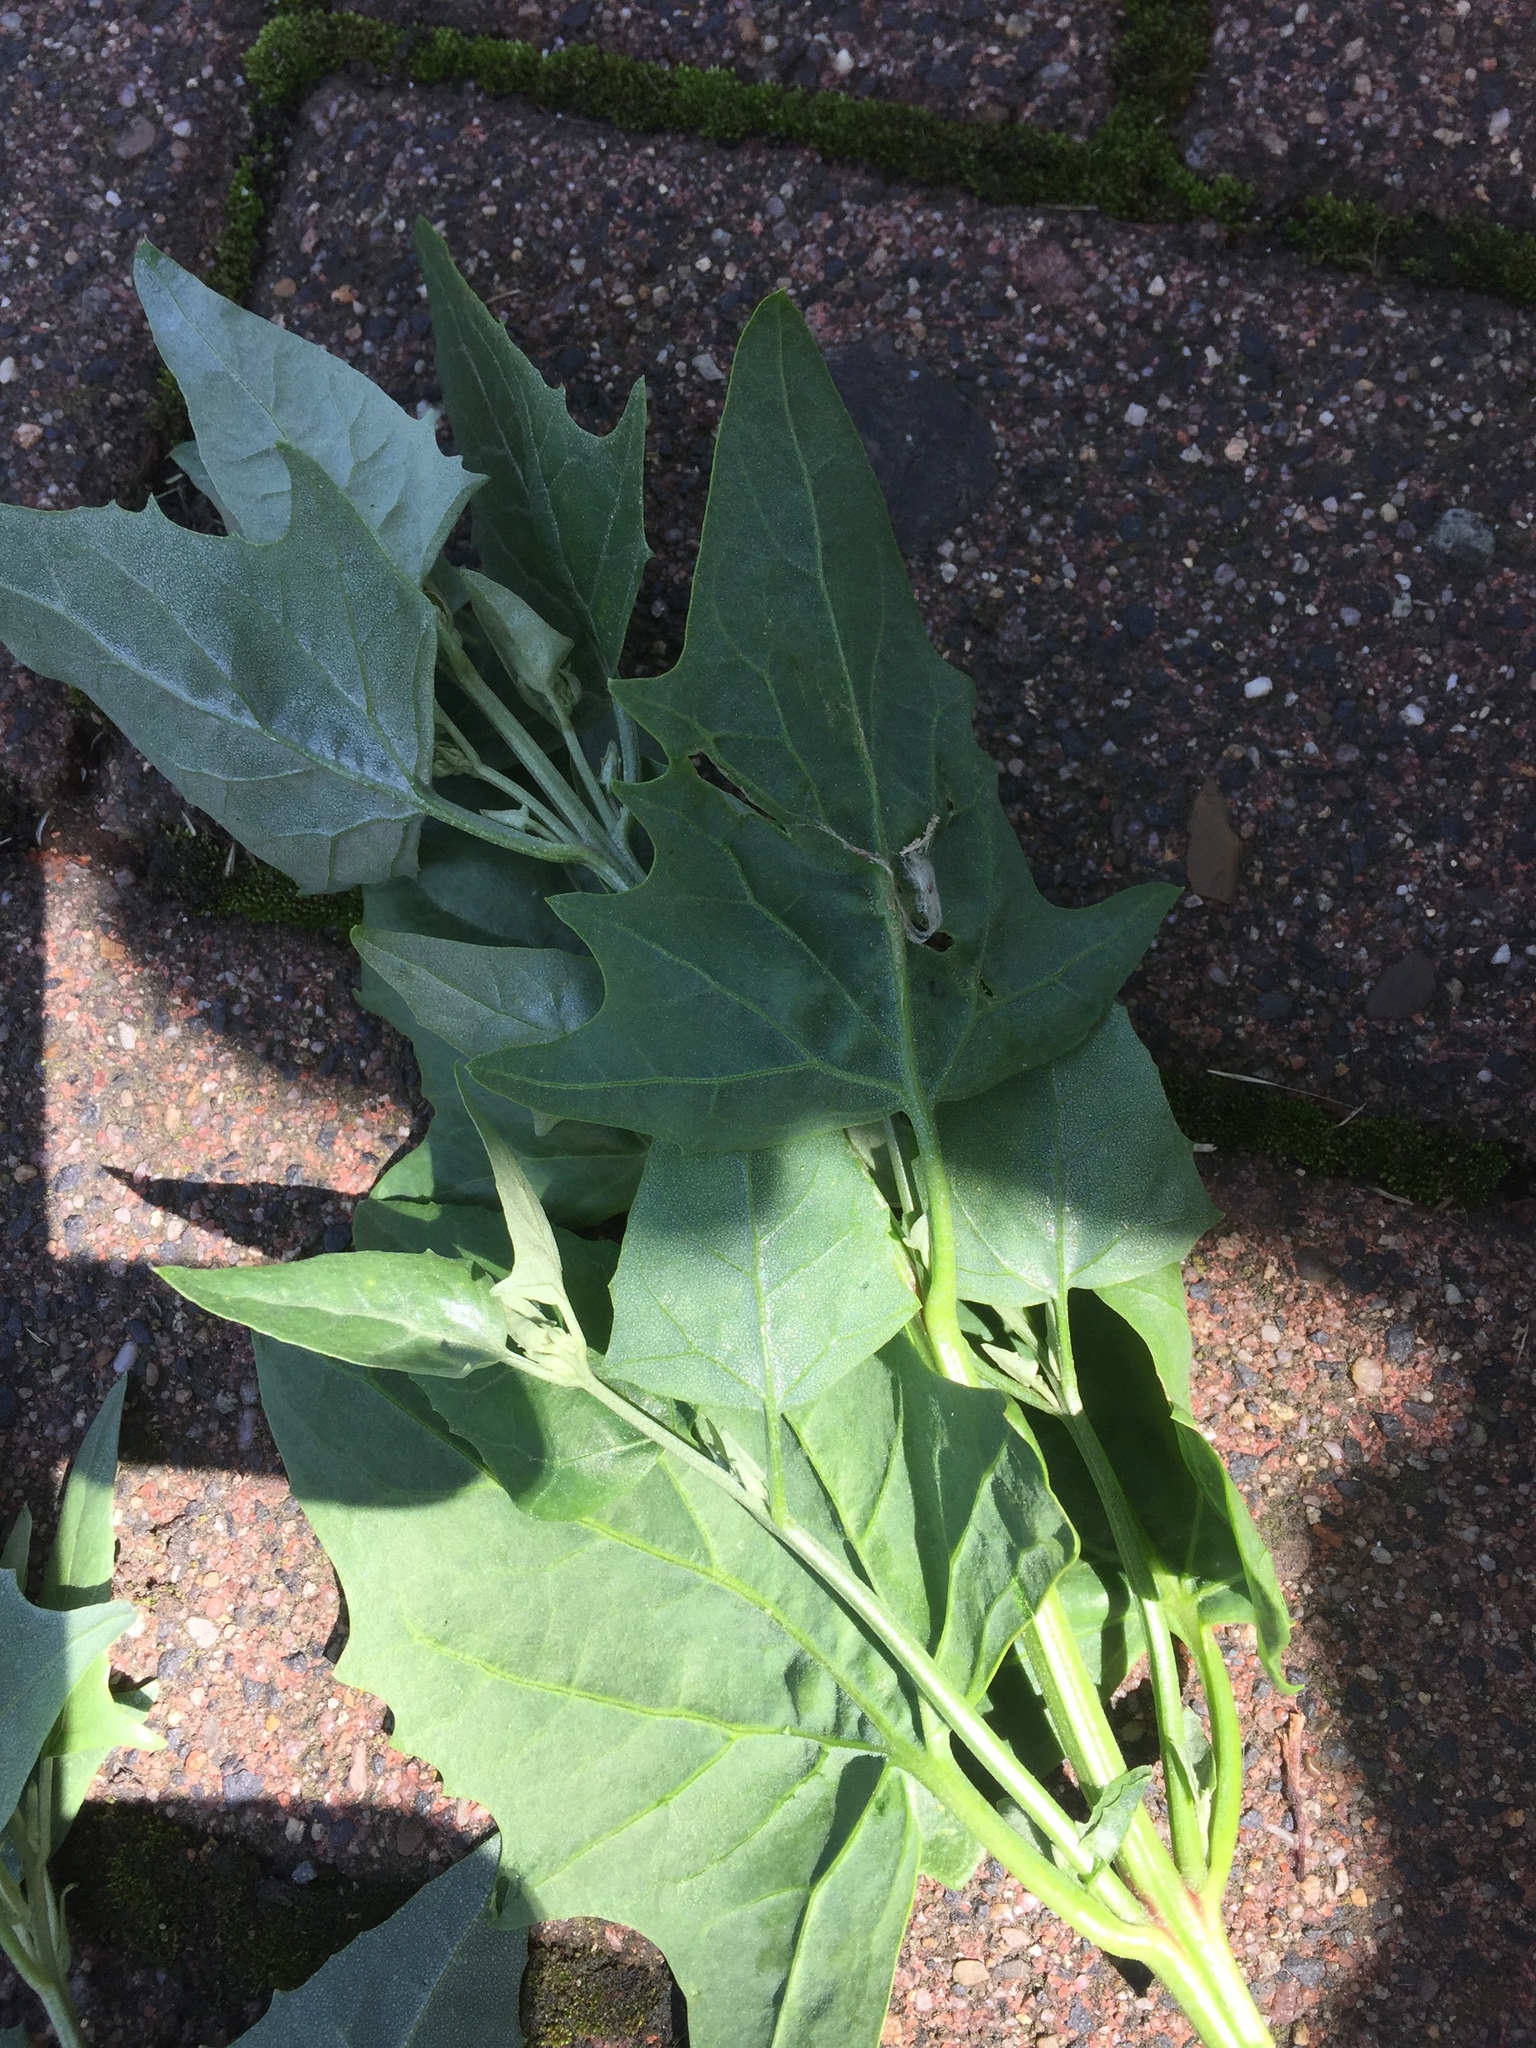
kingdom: Plantae
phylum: Tracheophyta
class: Magnoliopsida
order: Caryophyllales
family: Amaranthaceae
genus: Atriplex
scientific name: Atriplex micrantha
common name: Twoscale saltbush
